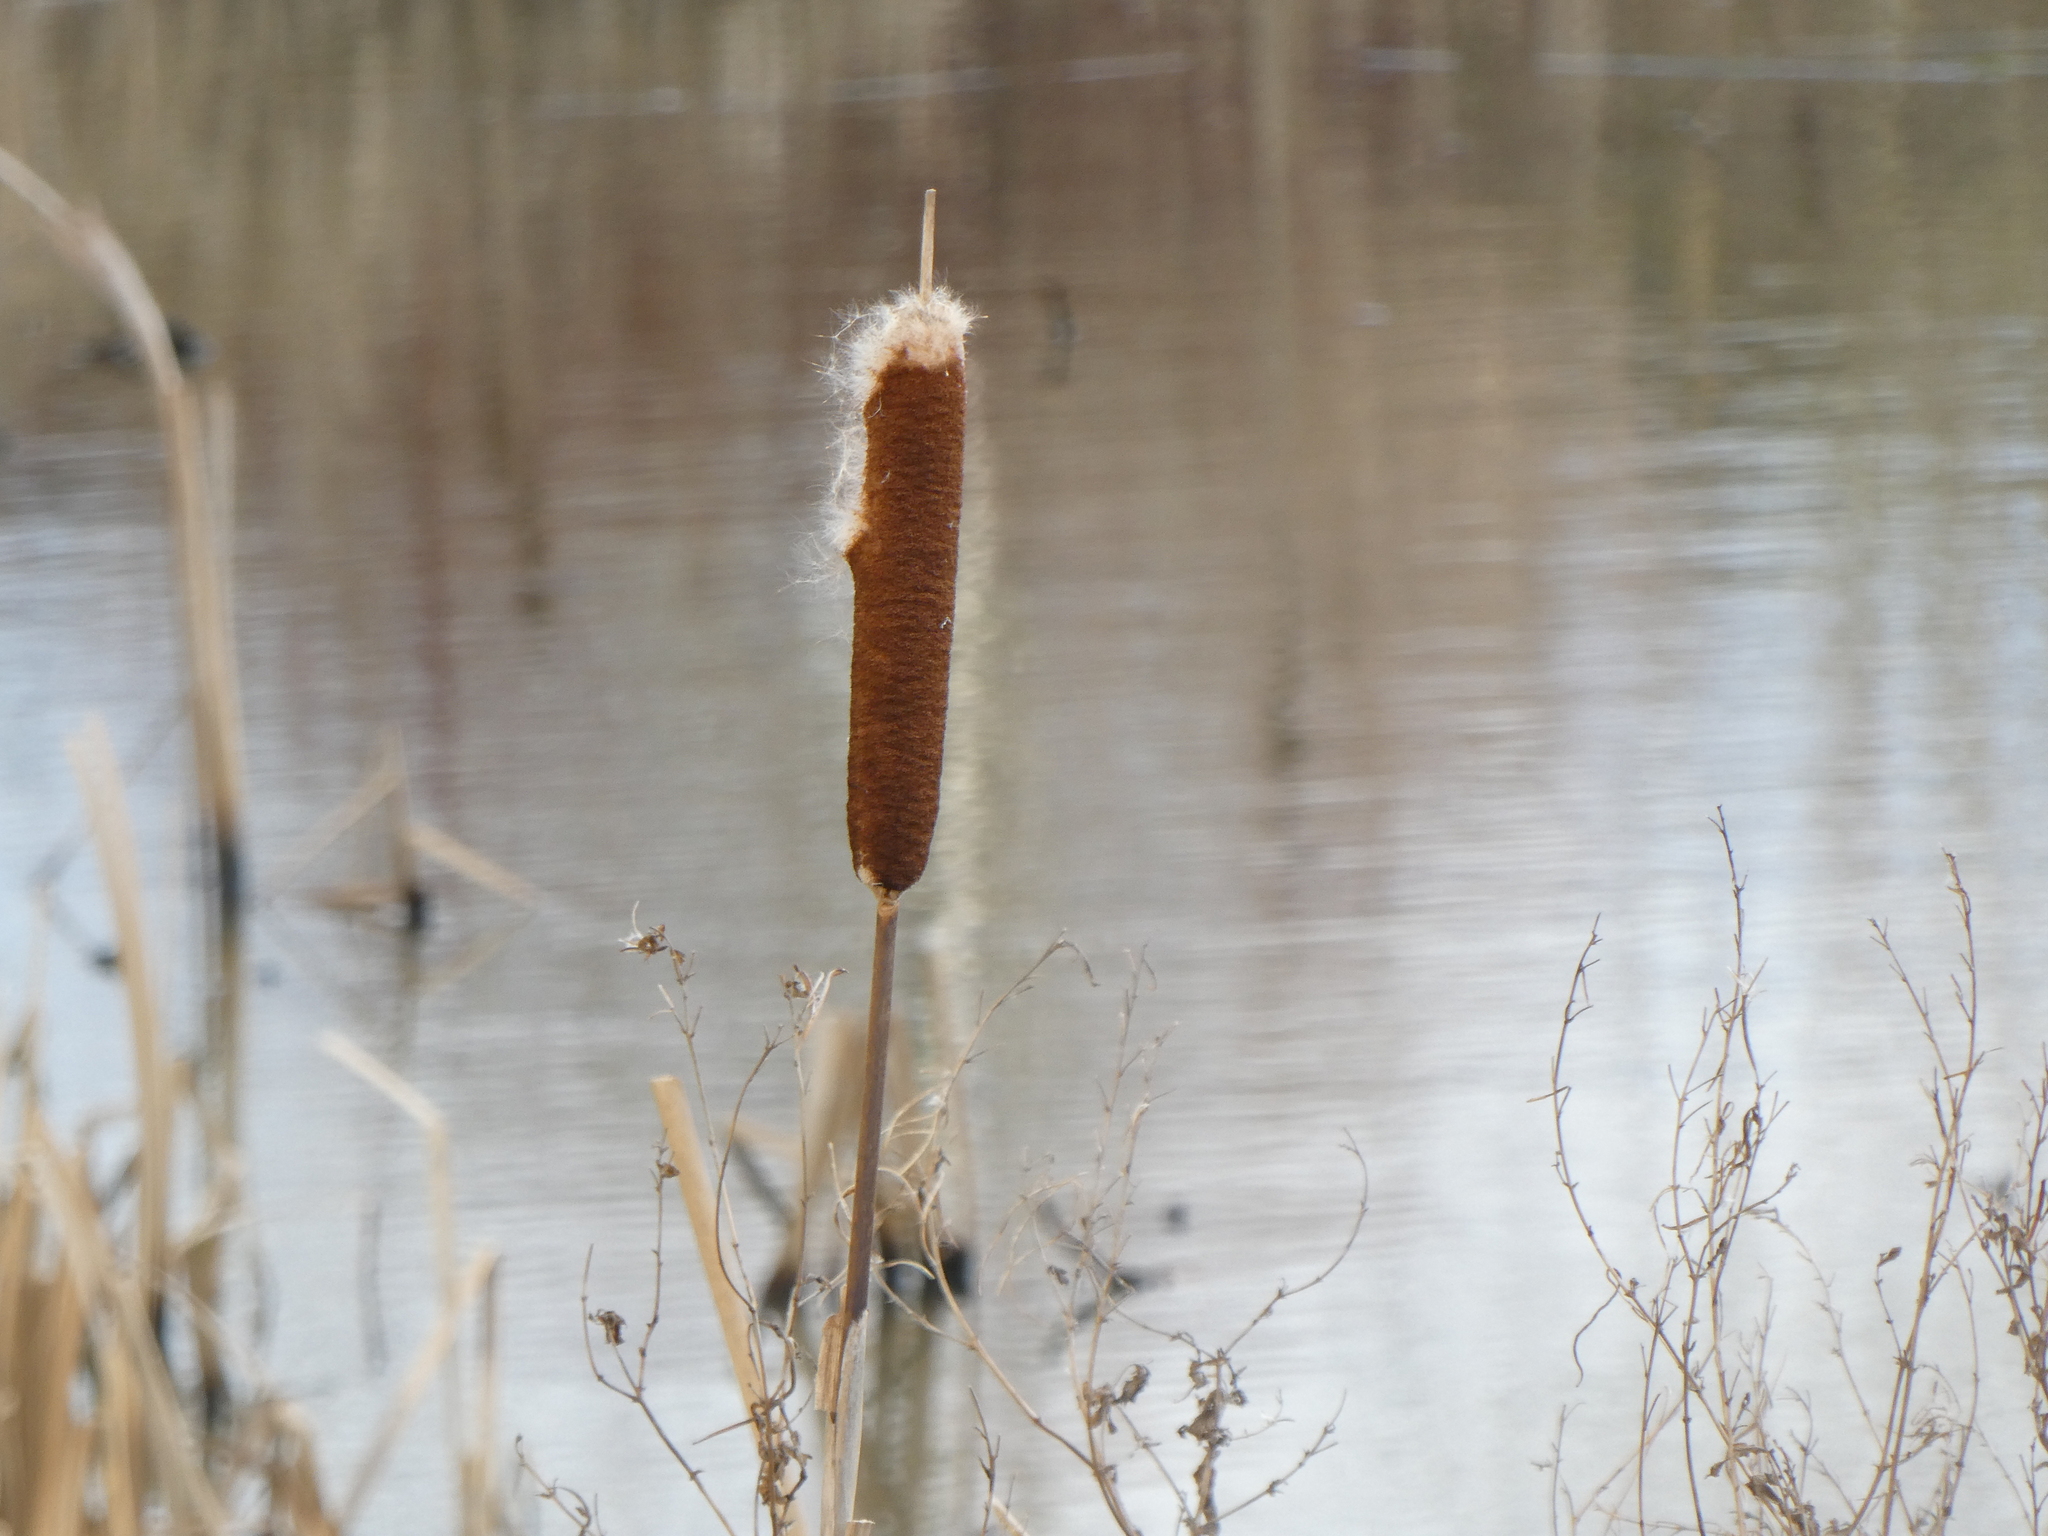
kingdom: Plantae
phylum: Tracheophyta
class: Liliopsida
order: Poales
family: Typhaceae
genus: Typha
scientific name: Typha latifolia
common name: Broadleaf cattail
